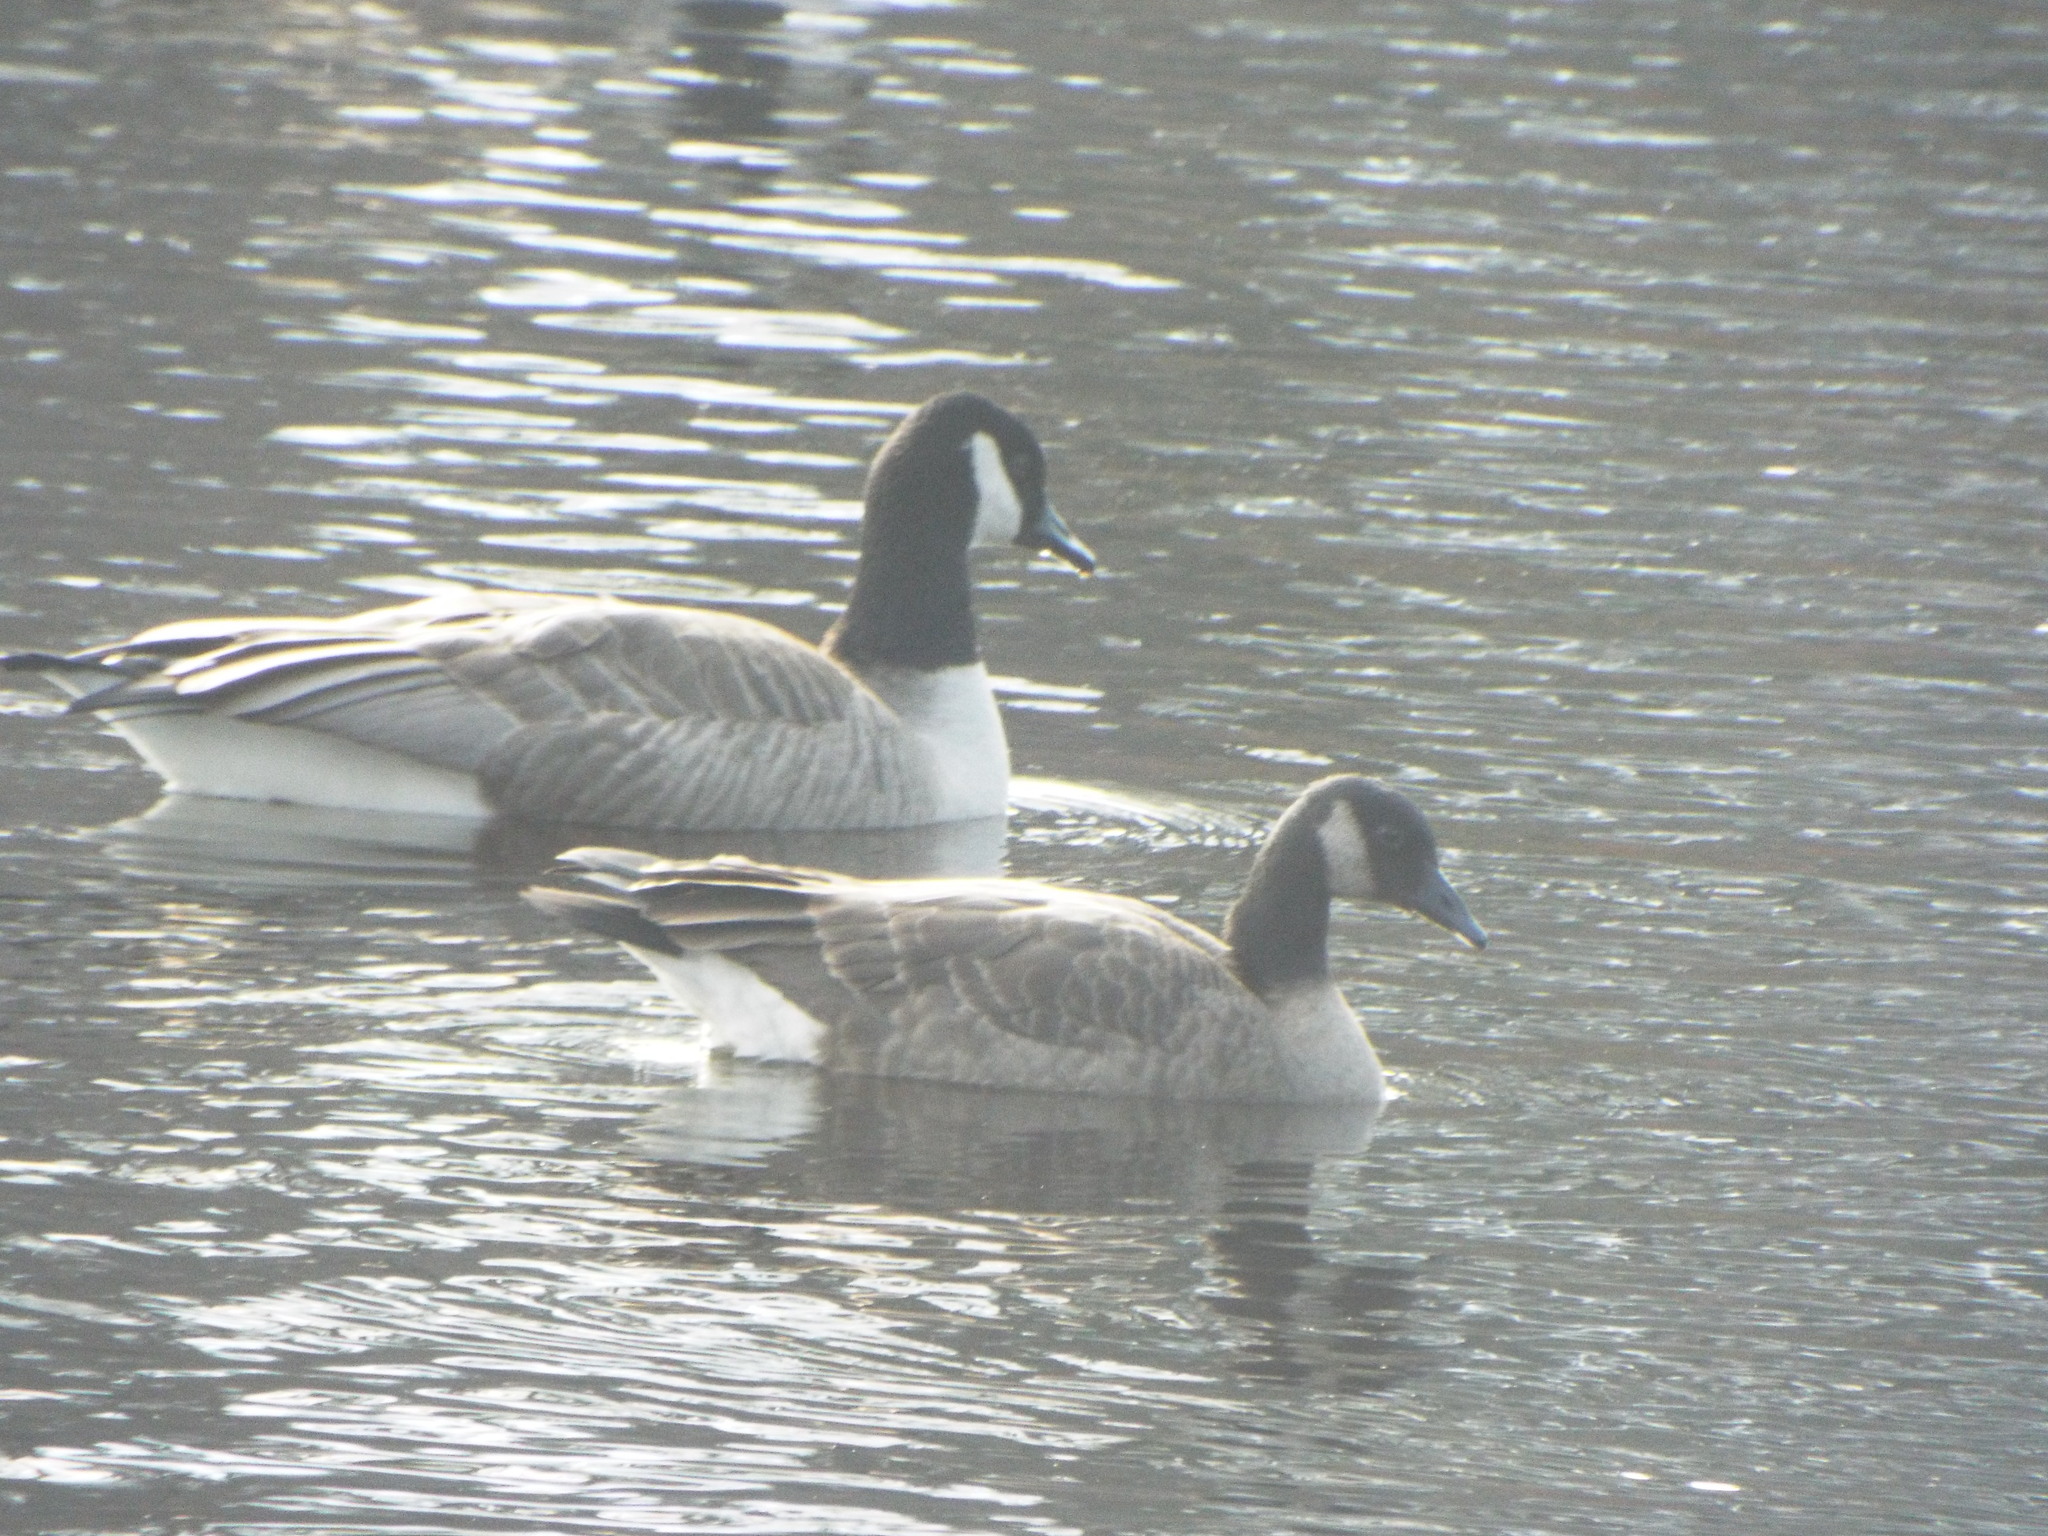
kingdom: Animalia
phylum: Chordata
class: Aves
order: Anseriformes
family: Anatidae
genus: Branta
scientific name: Branta canadensis
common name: Canada goose
